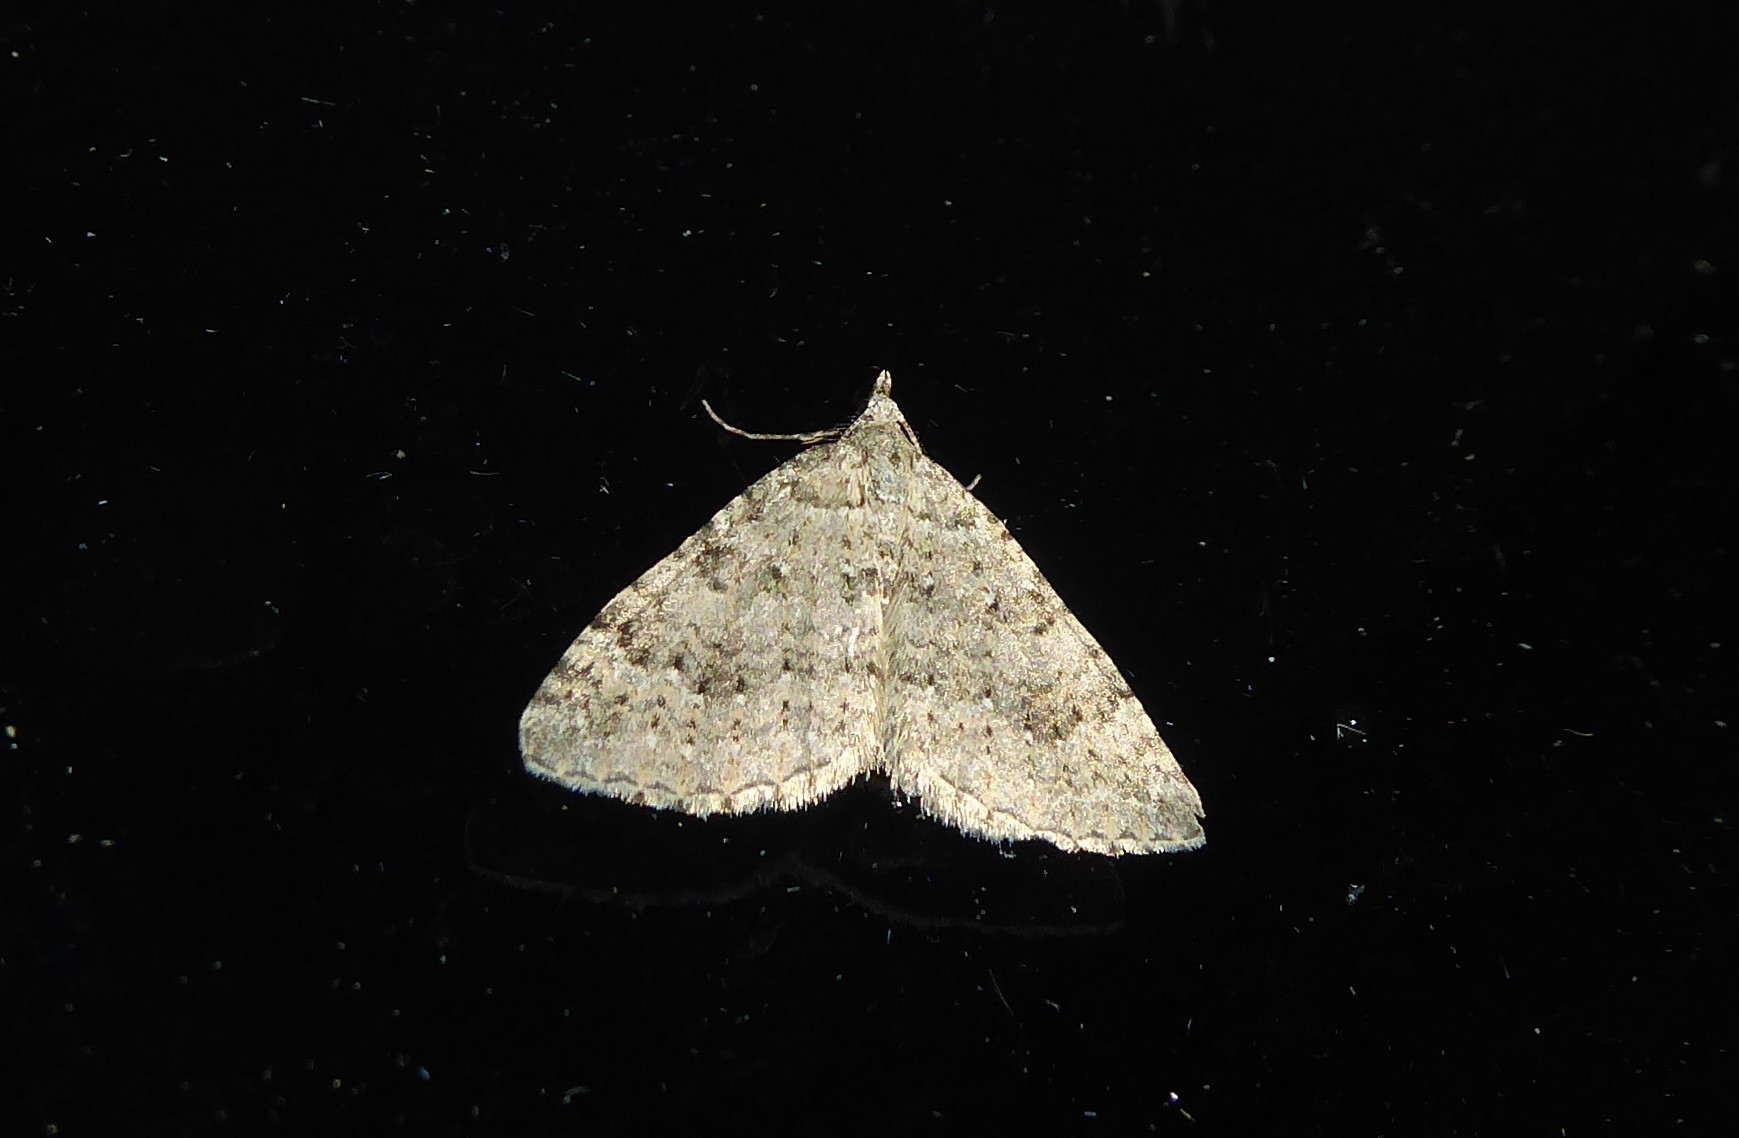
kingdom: Animalia
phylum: Arthropoda
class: Insecta
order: Lepidoptera
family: Geometridae
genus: Helastia
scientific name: Helastia corcularia
